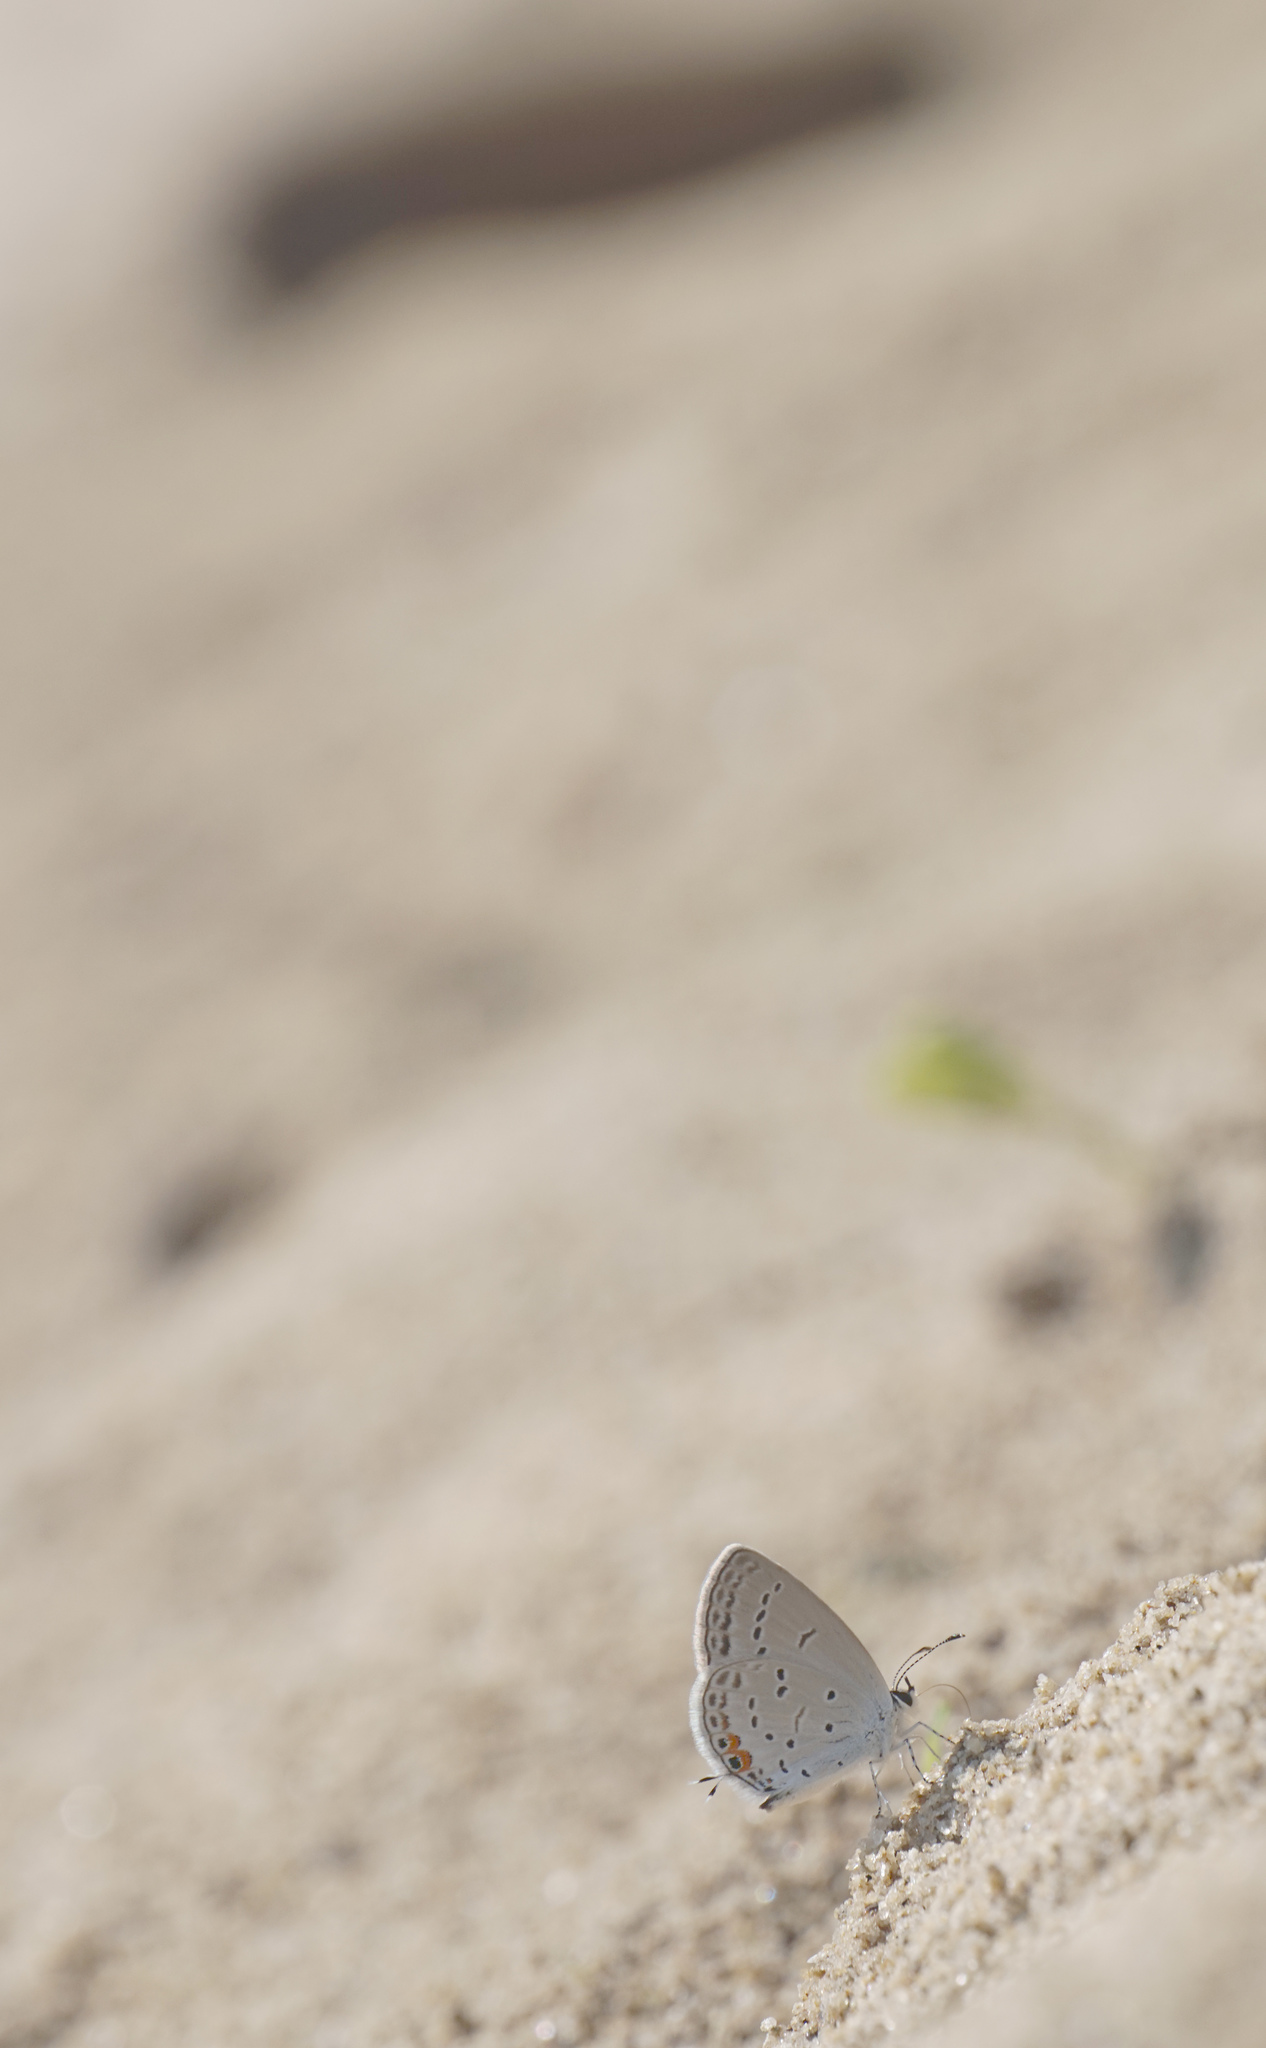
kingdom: Animalia
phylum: Arthropoda
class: Insecta
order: Lepidoptera
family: Lycaenidae
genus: Elkalyce
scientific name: Elkalyce comyntas
